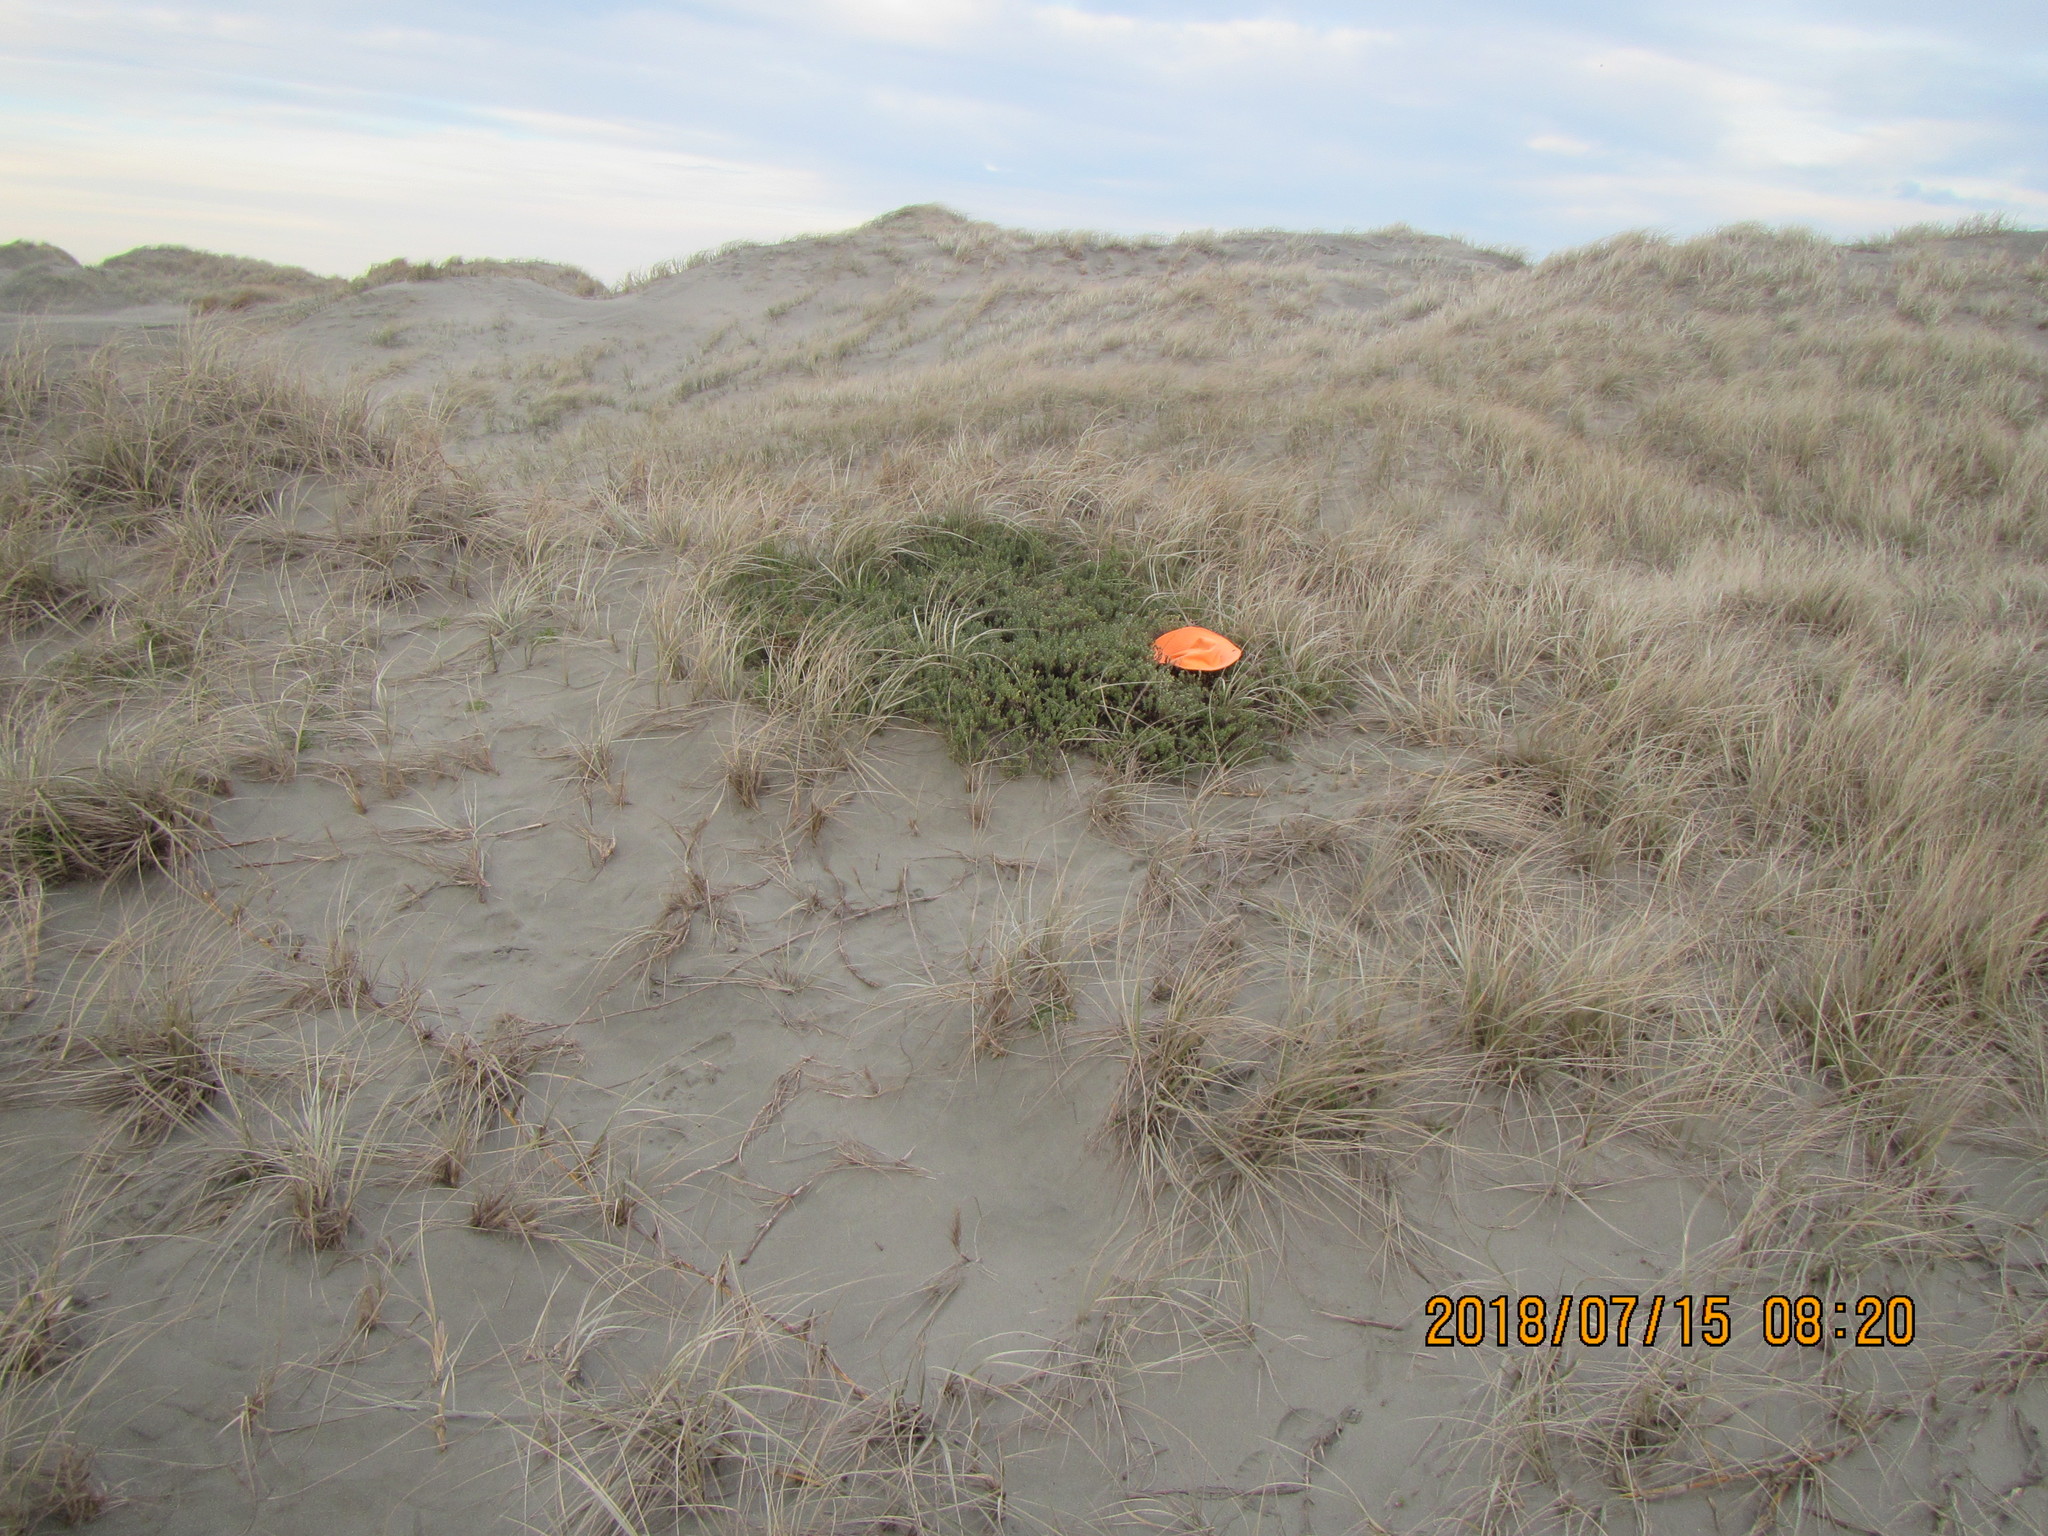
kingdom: Animalia
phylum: Arthropoda
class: Arachnida
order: Araneae
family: Theridiidae
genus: Latrodectus
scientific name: Latrodectus katipo
